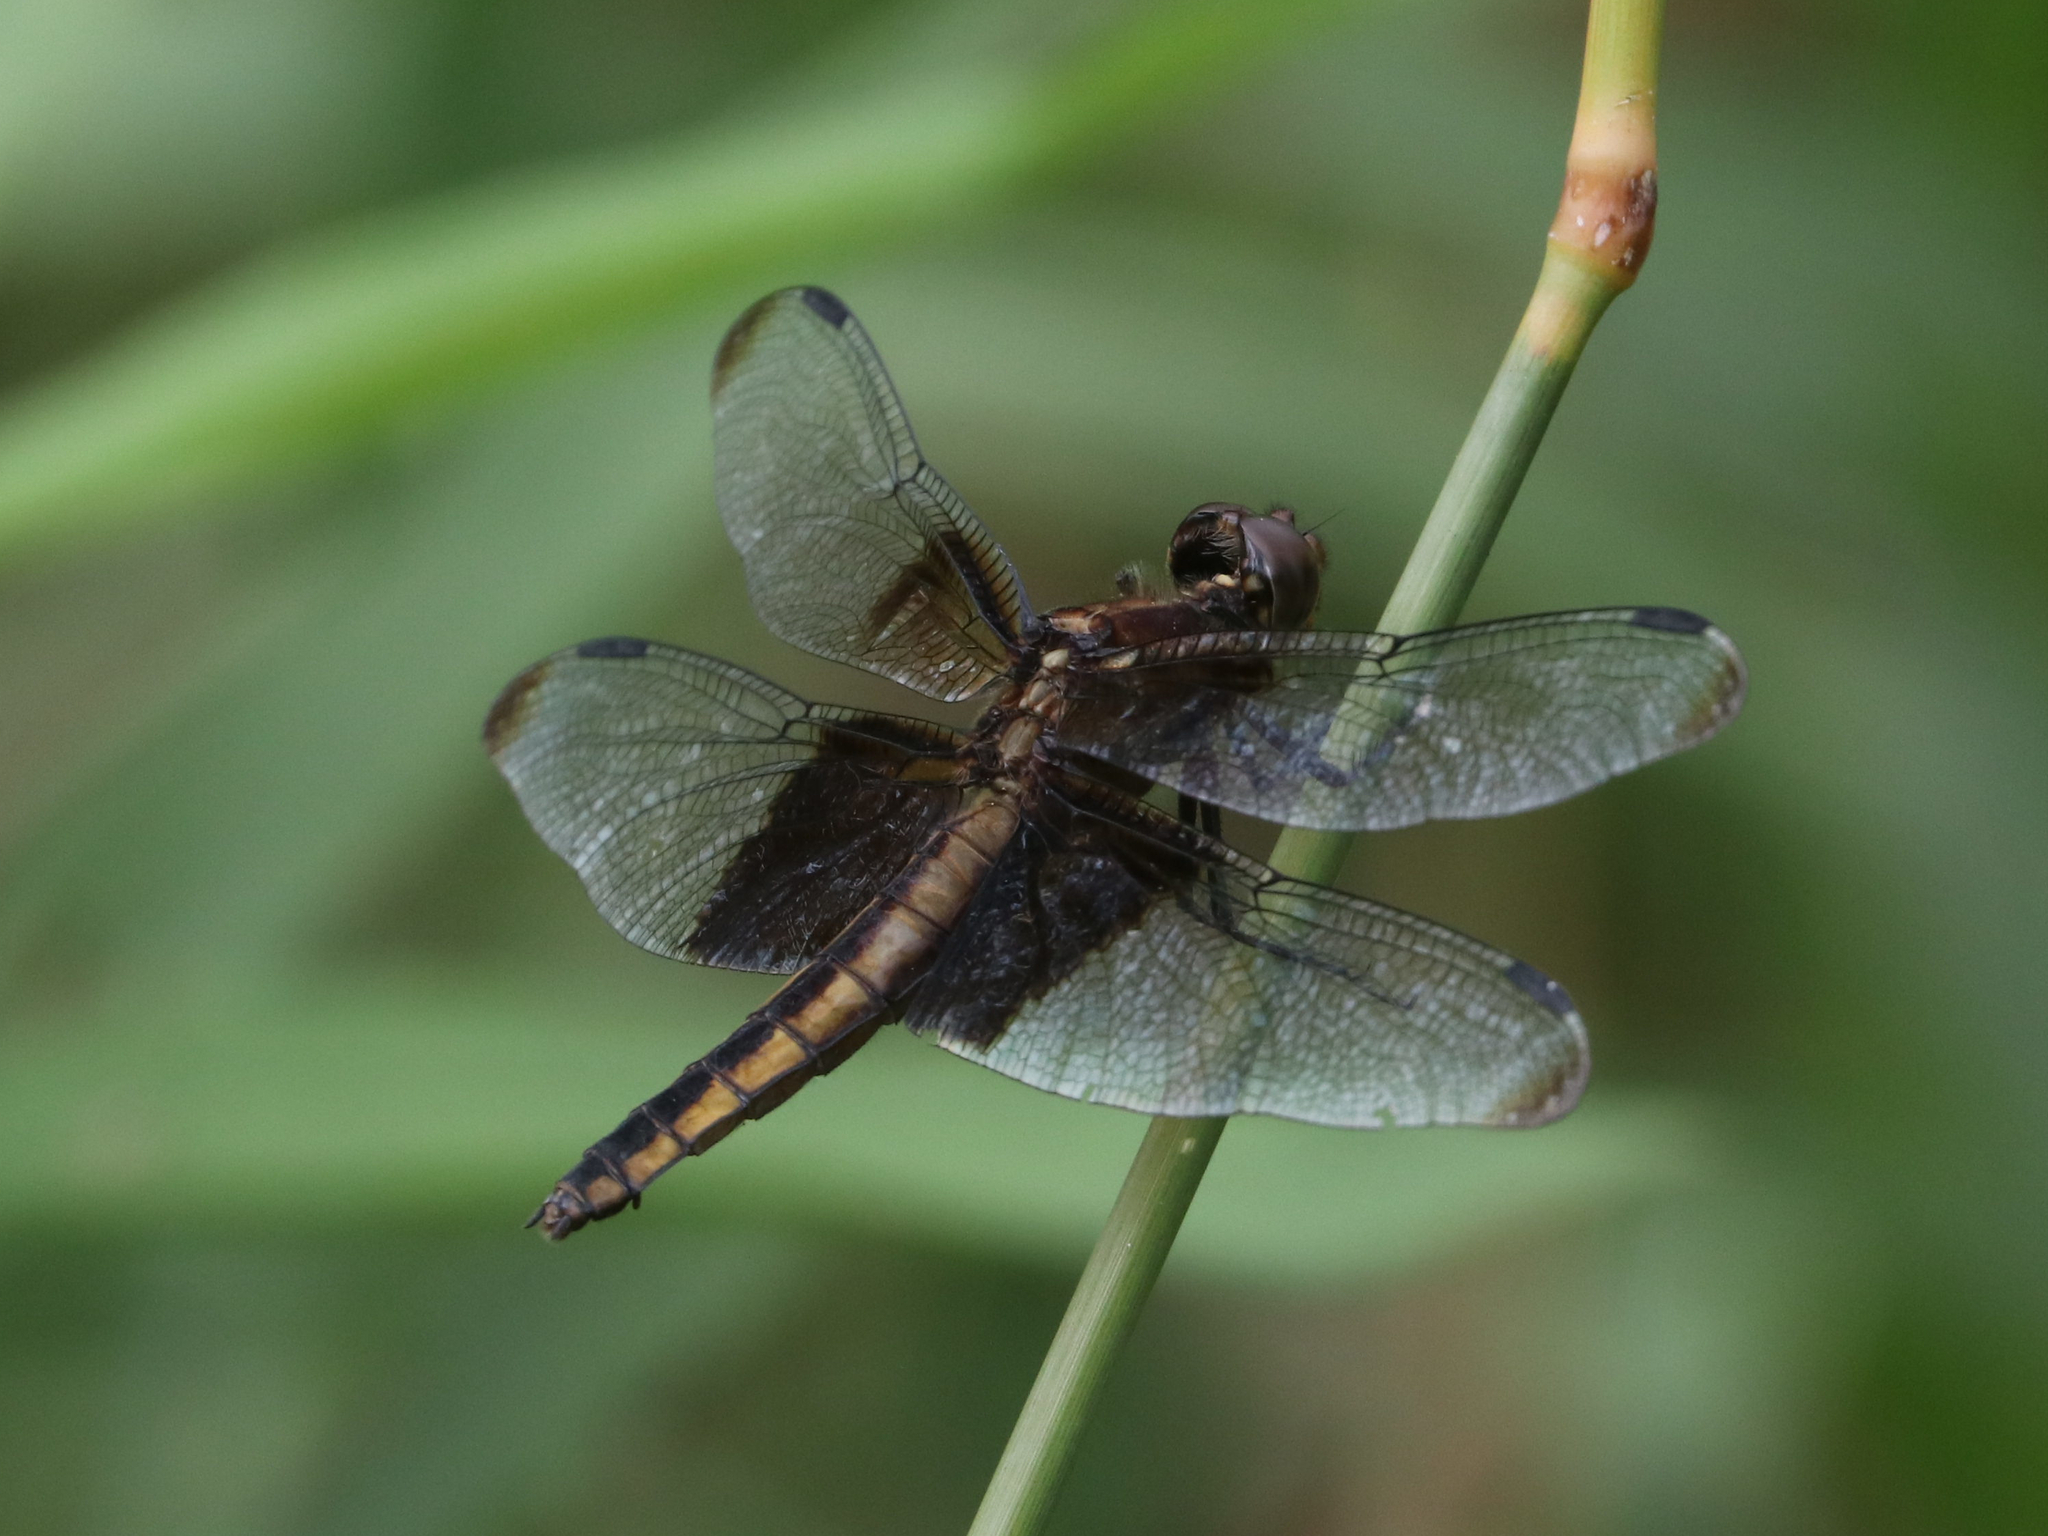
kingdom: Animalia
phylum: Arthropoda
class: Insecta
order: Odonata
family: Libellulidae
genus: Libellula
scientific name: Libellula luctuosa
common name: Widow skimmer
